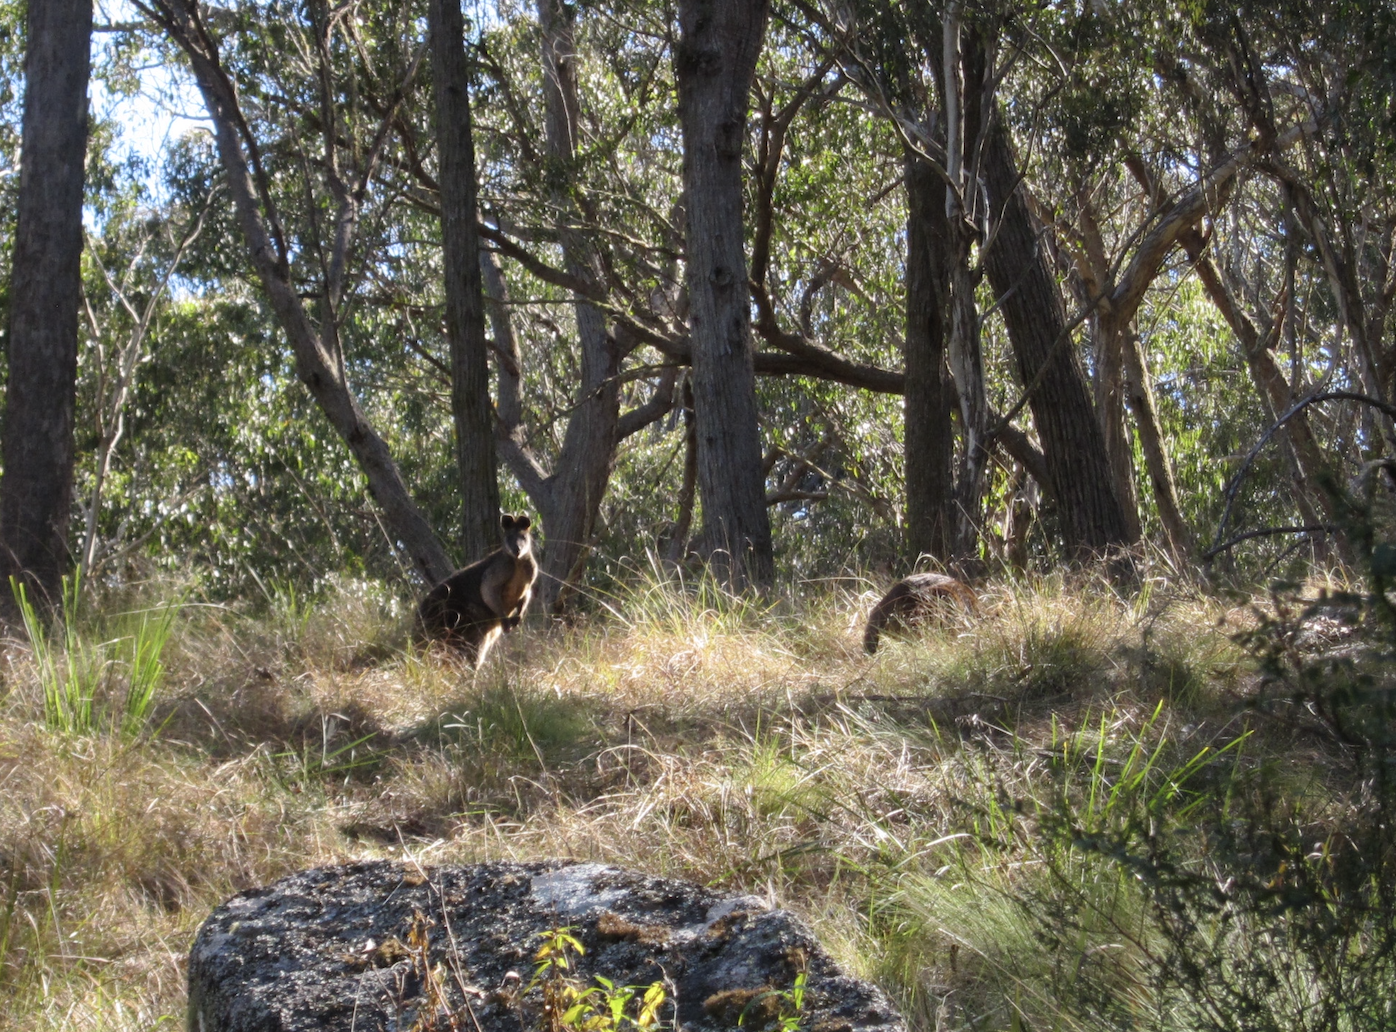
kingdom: Animalia
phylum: Chordata
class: Mammalia
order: Diprotodontia
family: Macropodidae
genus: Wallabia
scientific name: Wallabia bicolor
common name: Swamp wallaby
